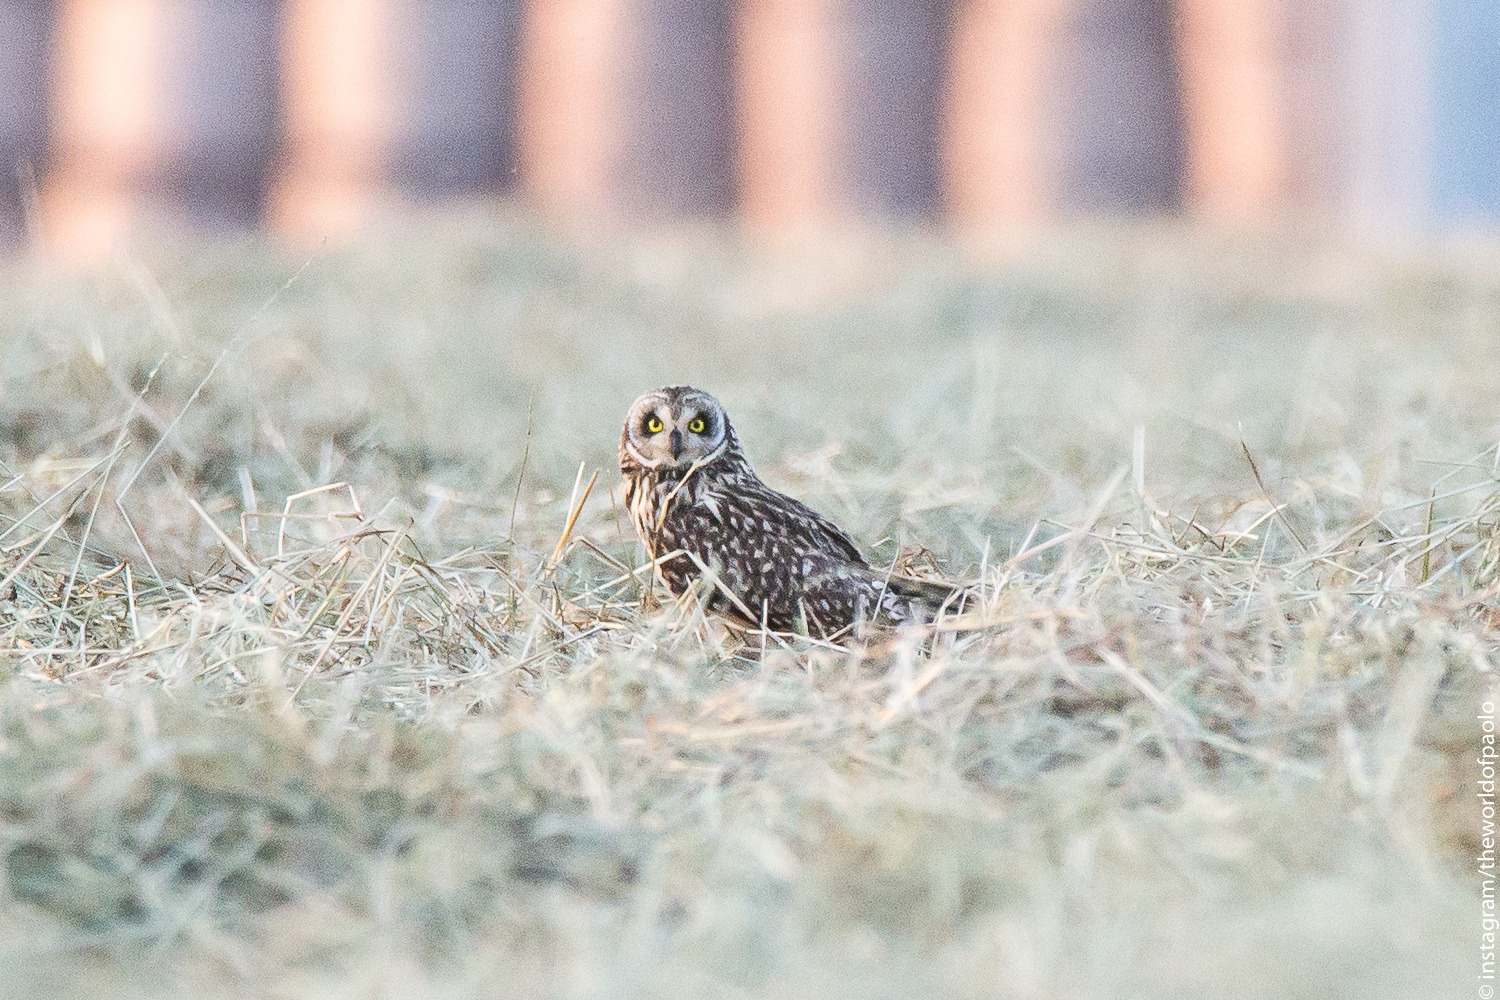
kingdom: Animalia
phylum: Chordata
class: Aves
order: Strigiformes
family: Strigidae
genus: Asio
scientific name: Asio flammeus
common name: Short-eared owl
